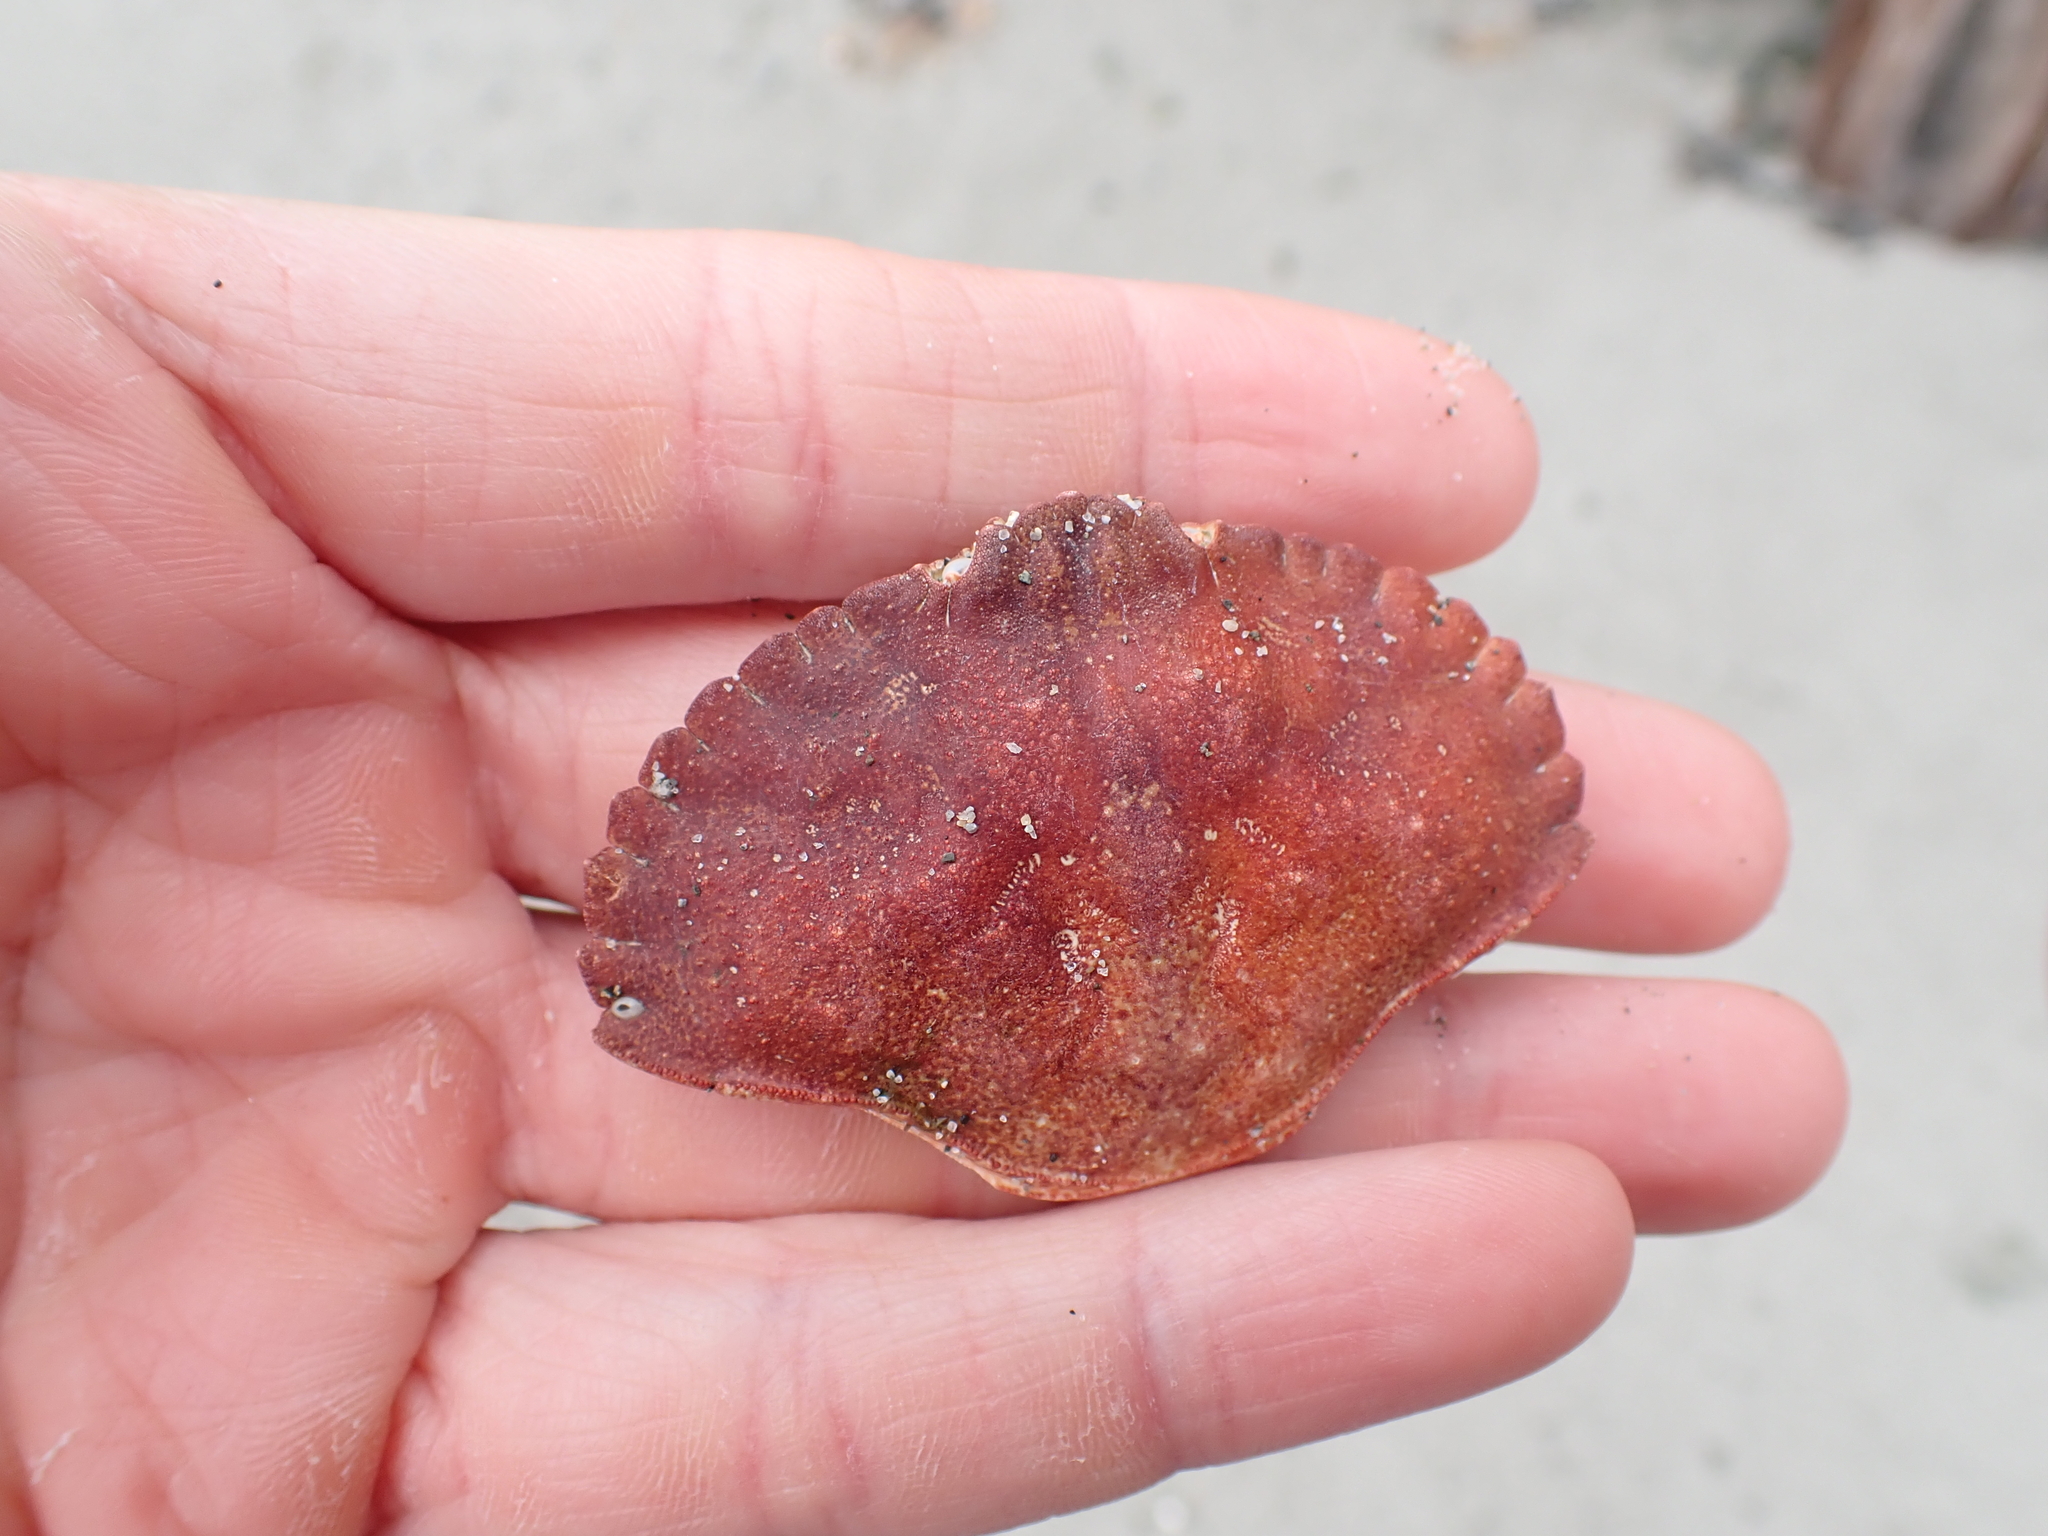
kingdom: Animalia
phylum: Arthropoda
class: Malacostraca
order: Decapoda
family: Cancridae
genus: Cancer
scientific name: Cancer productus
